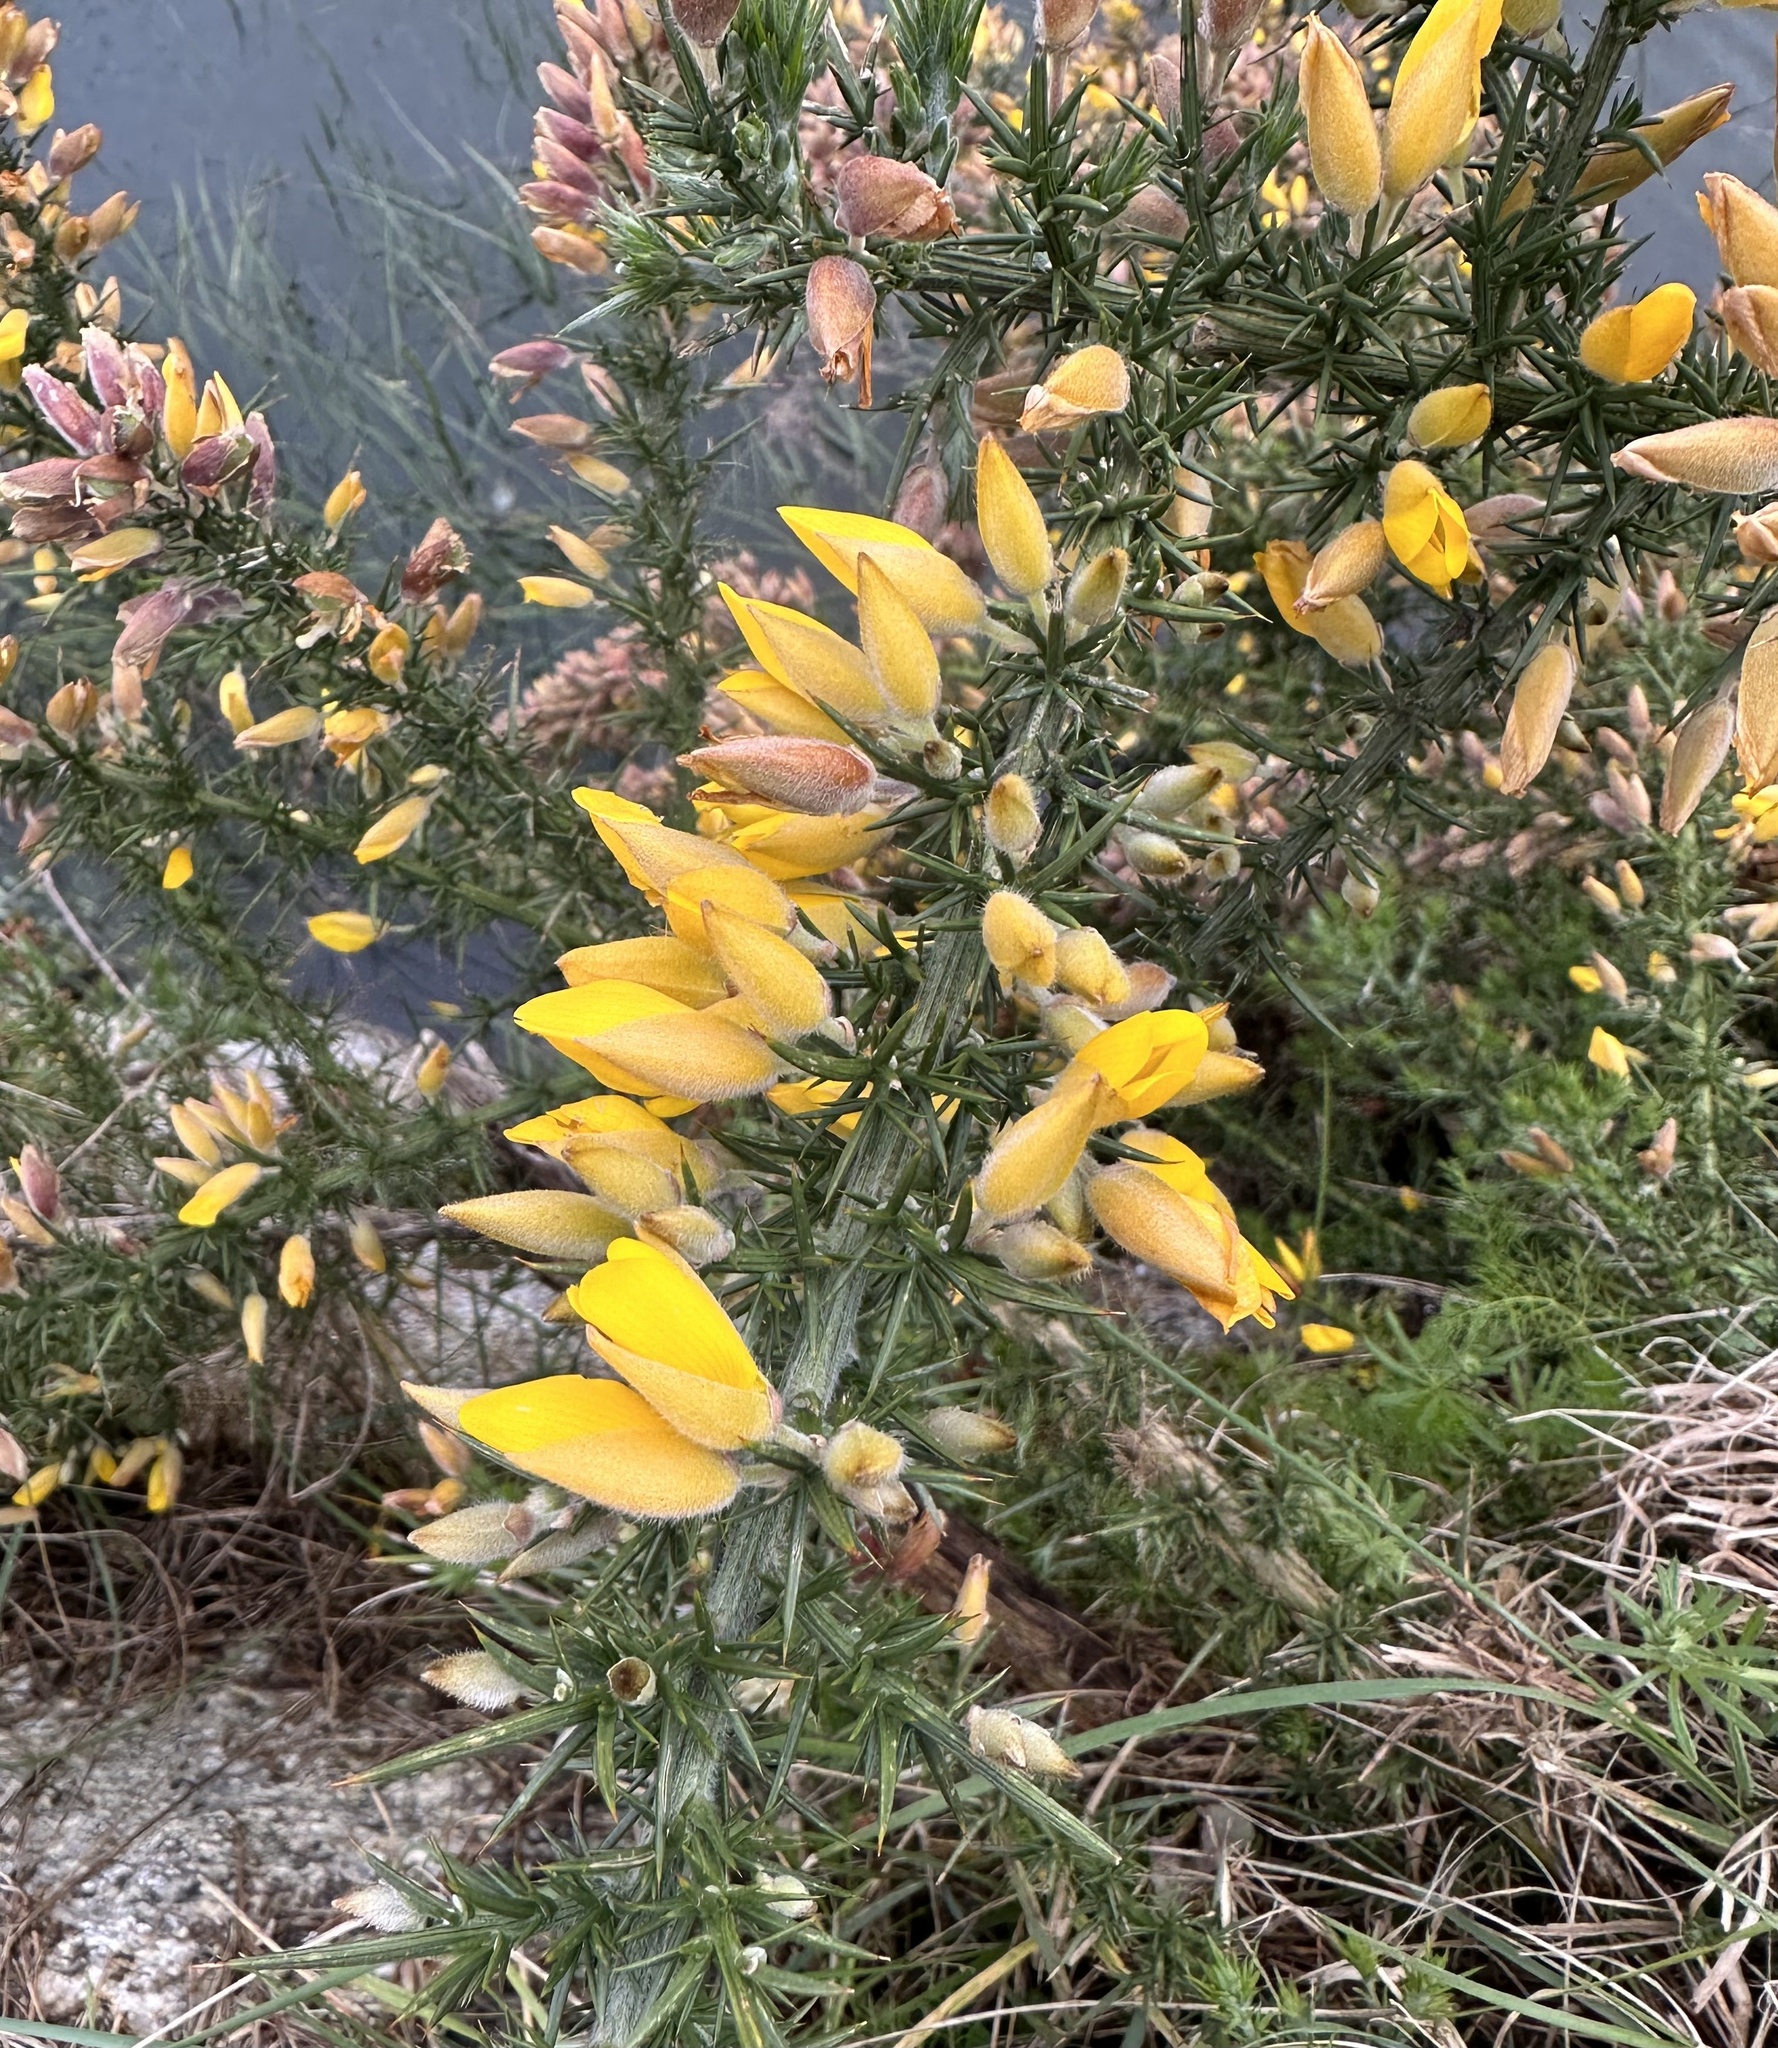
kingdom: Plantae
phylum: Tracheophyta
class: Magnoliopsida
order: Fabales
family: Fabaceae
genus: Ulex
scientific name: Ulex europaeus
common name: Common gorse
